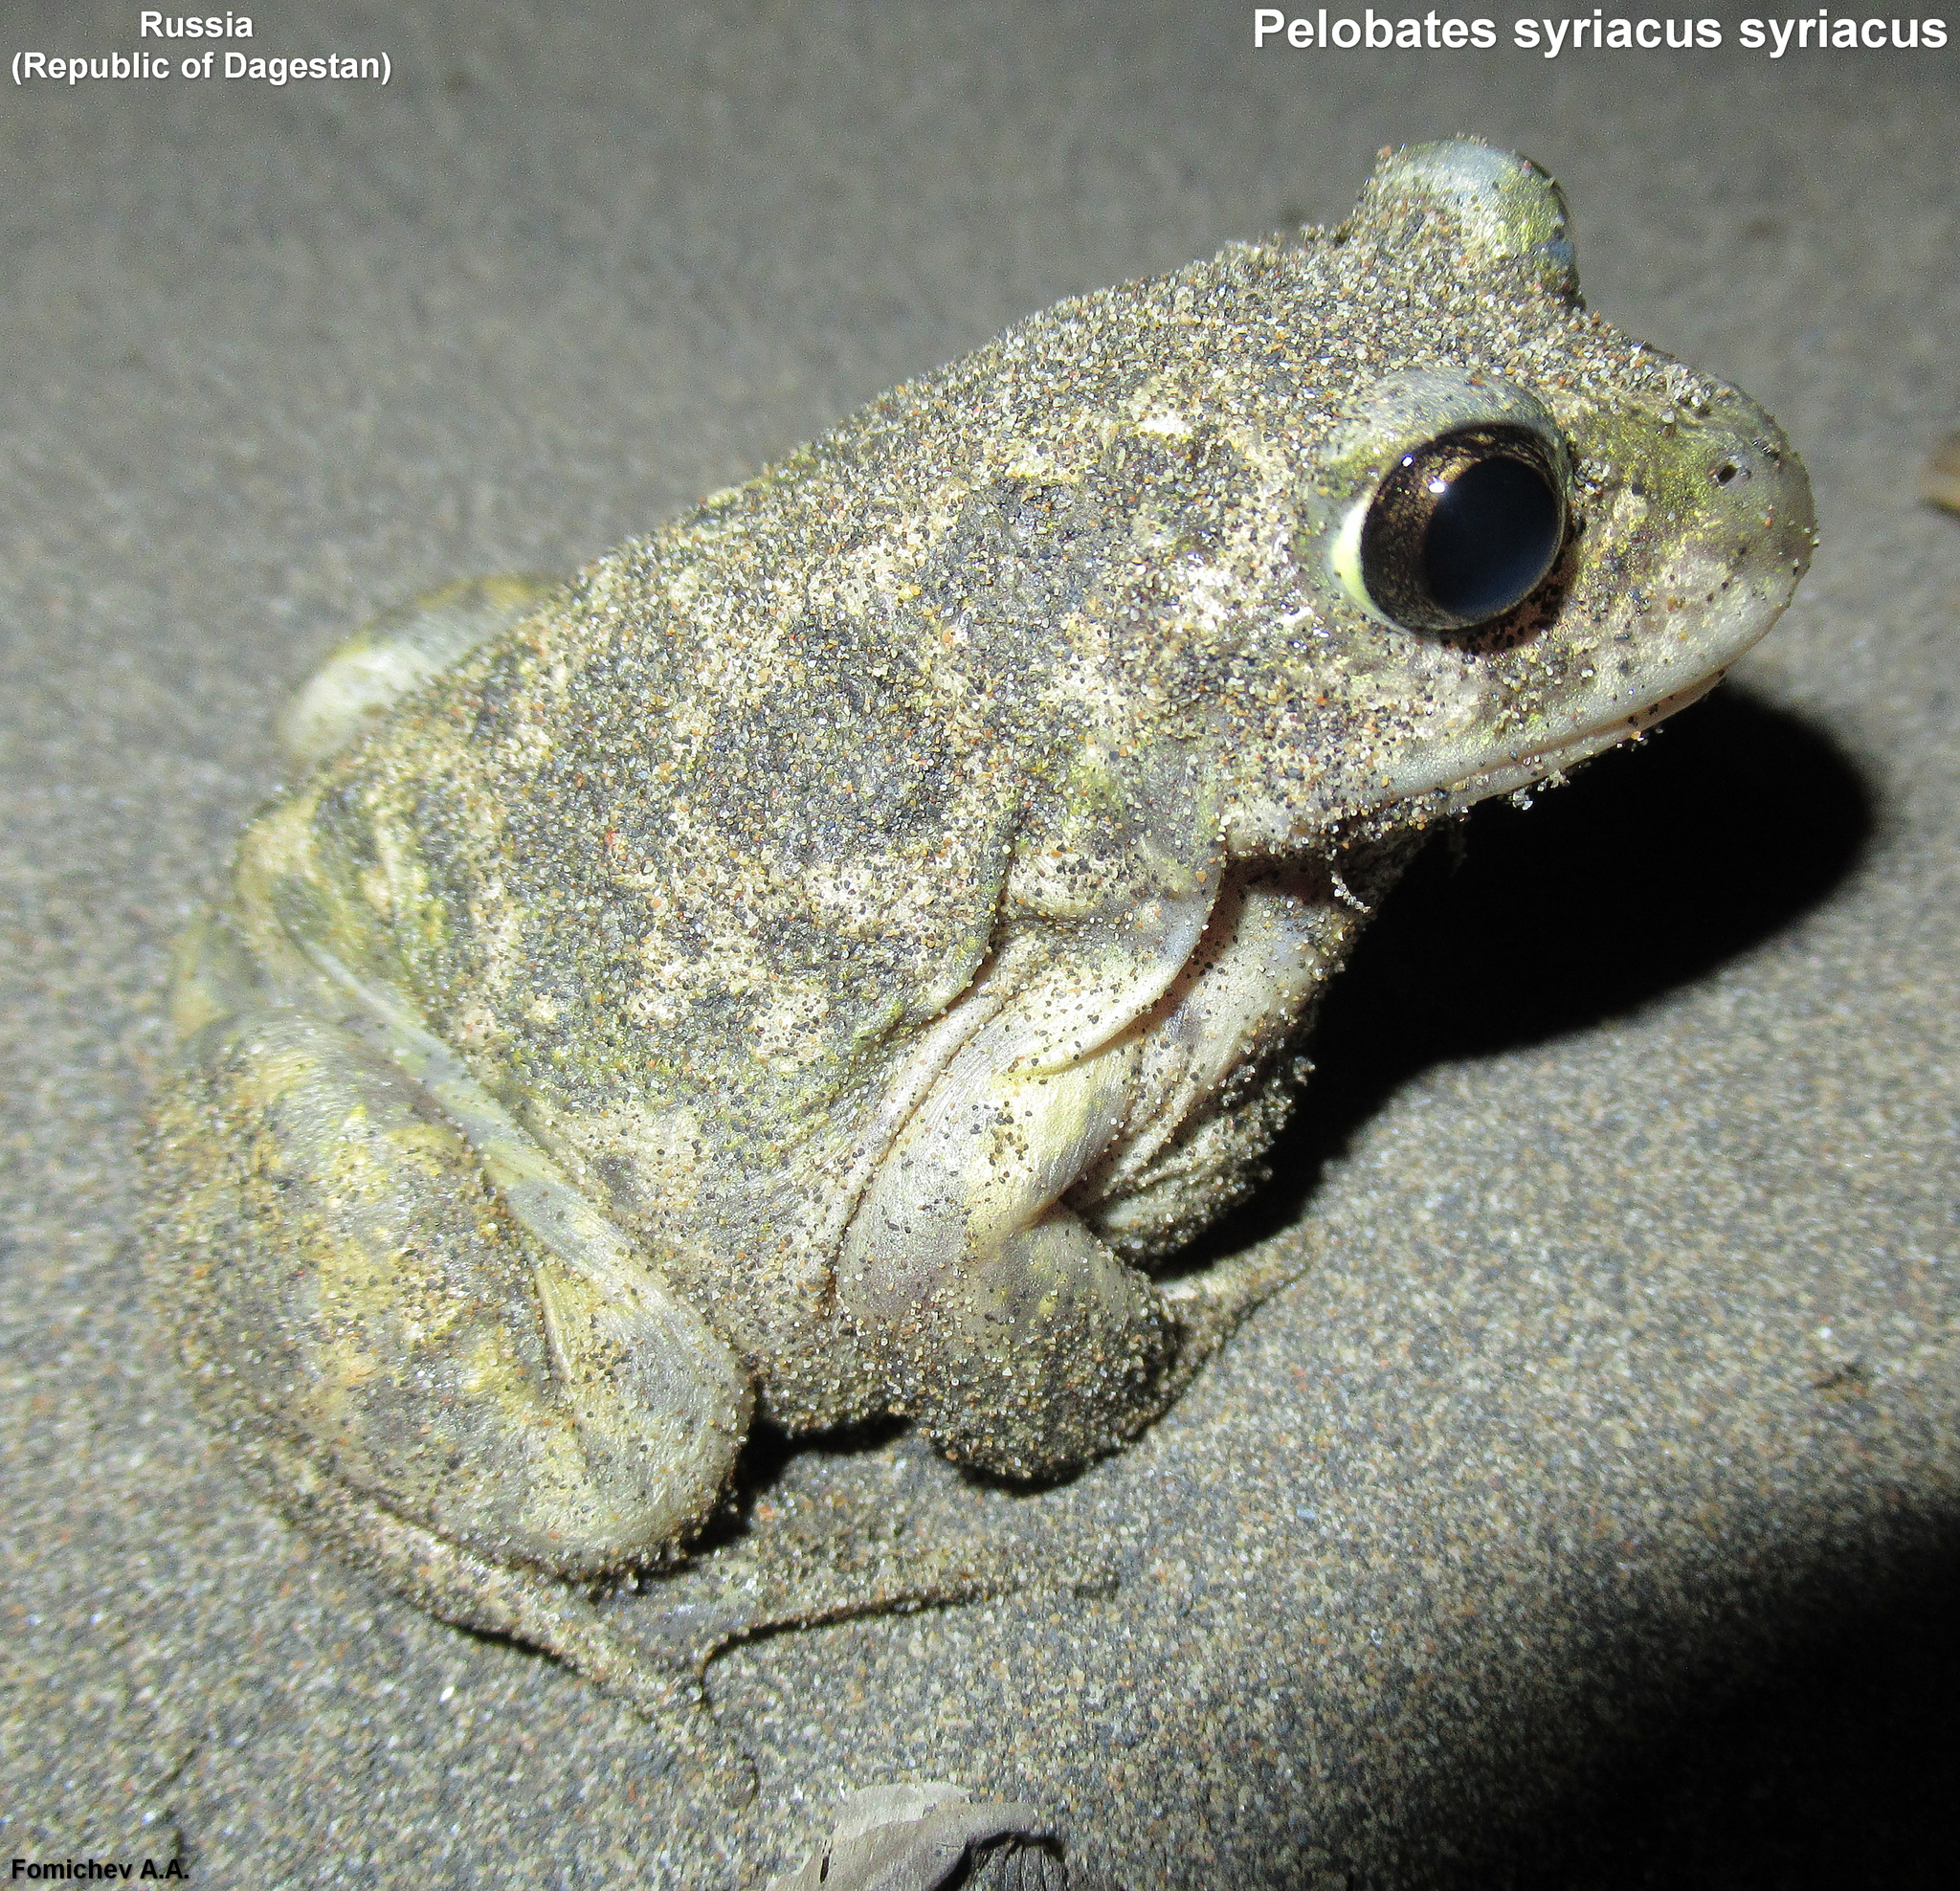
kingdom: Animalia
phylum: Chordata
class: Amphibia
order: Anura
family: Pelobatidae
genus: Pelobates
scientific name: Pelobates syriacus
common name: Syrian spadefoot toad
